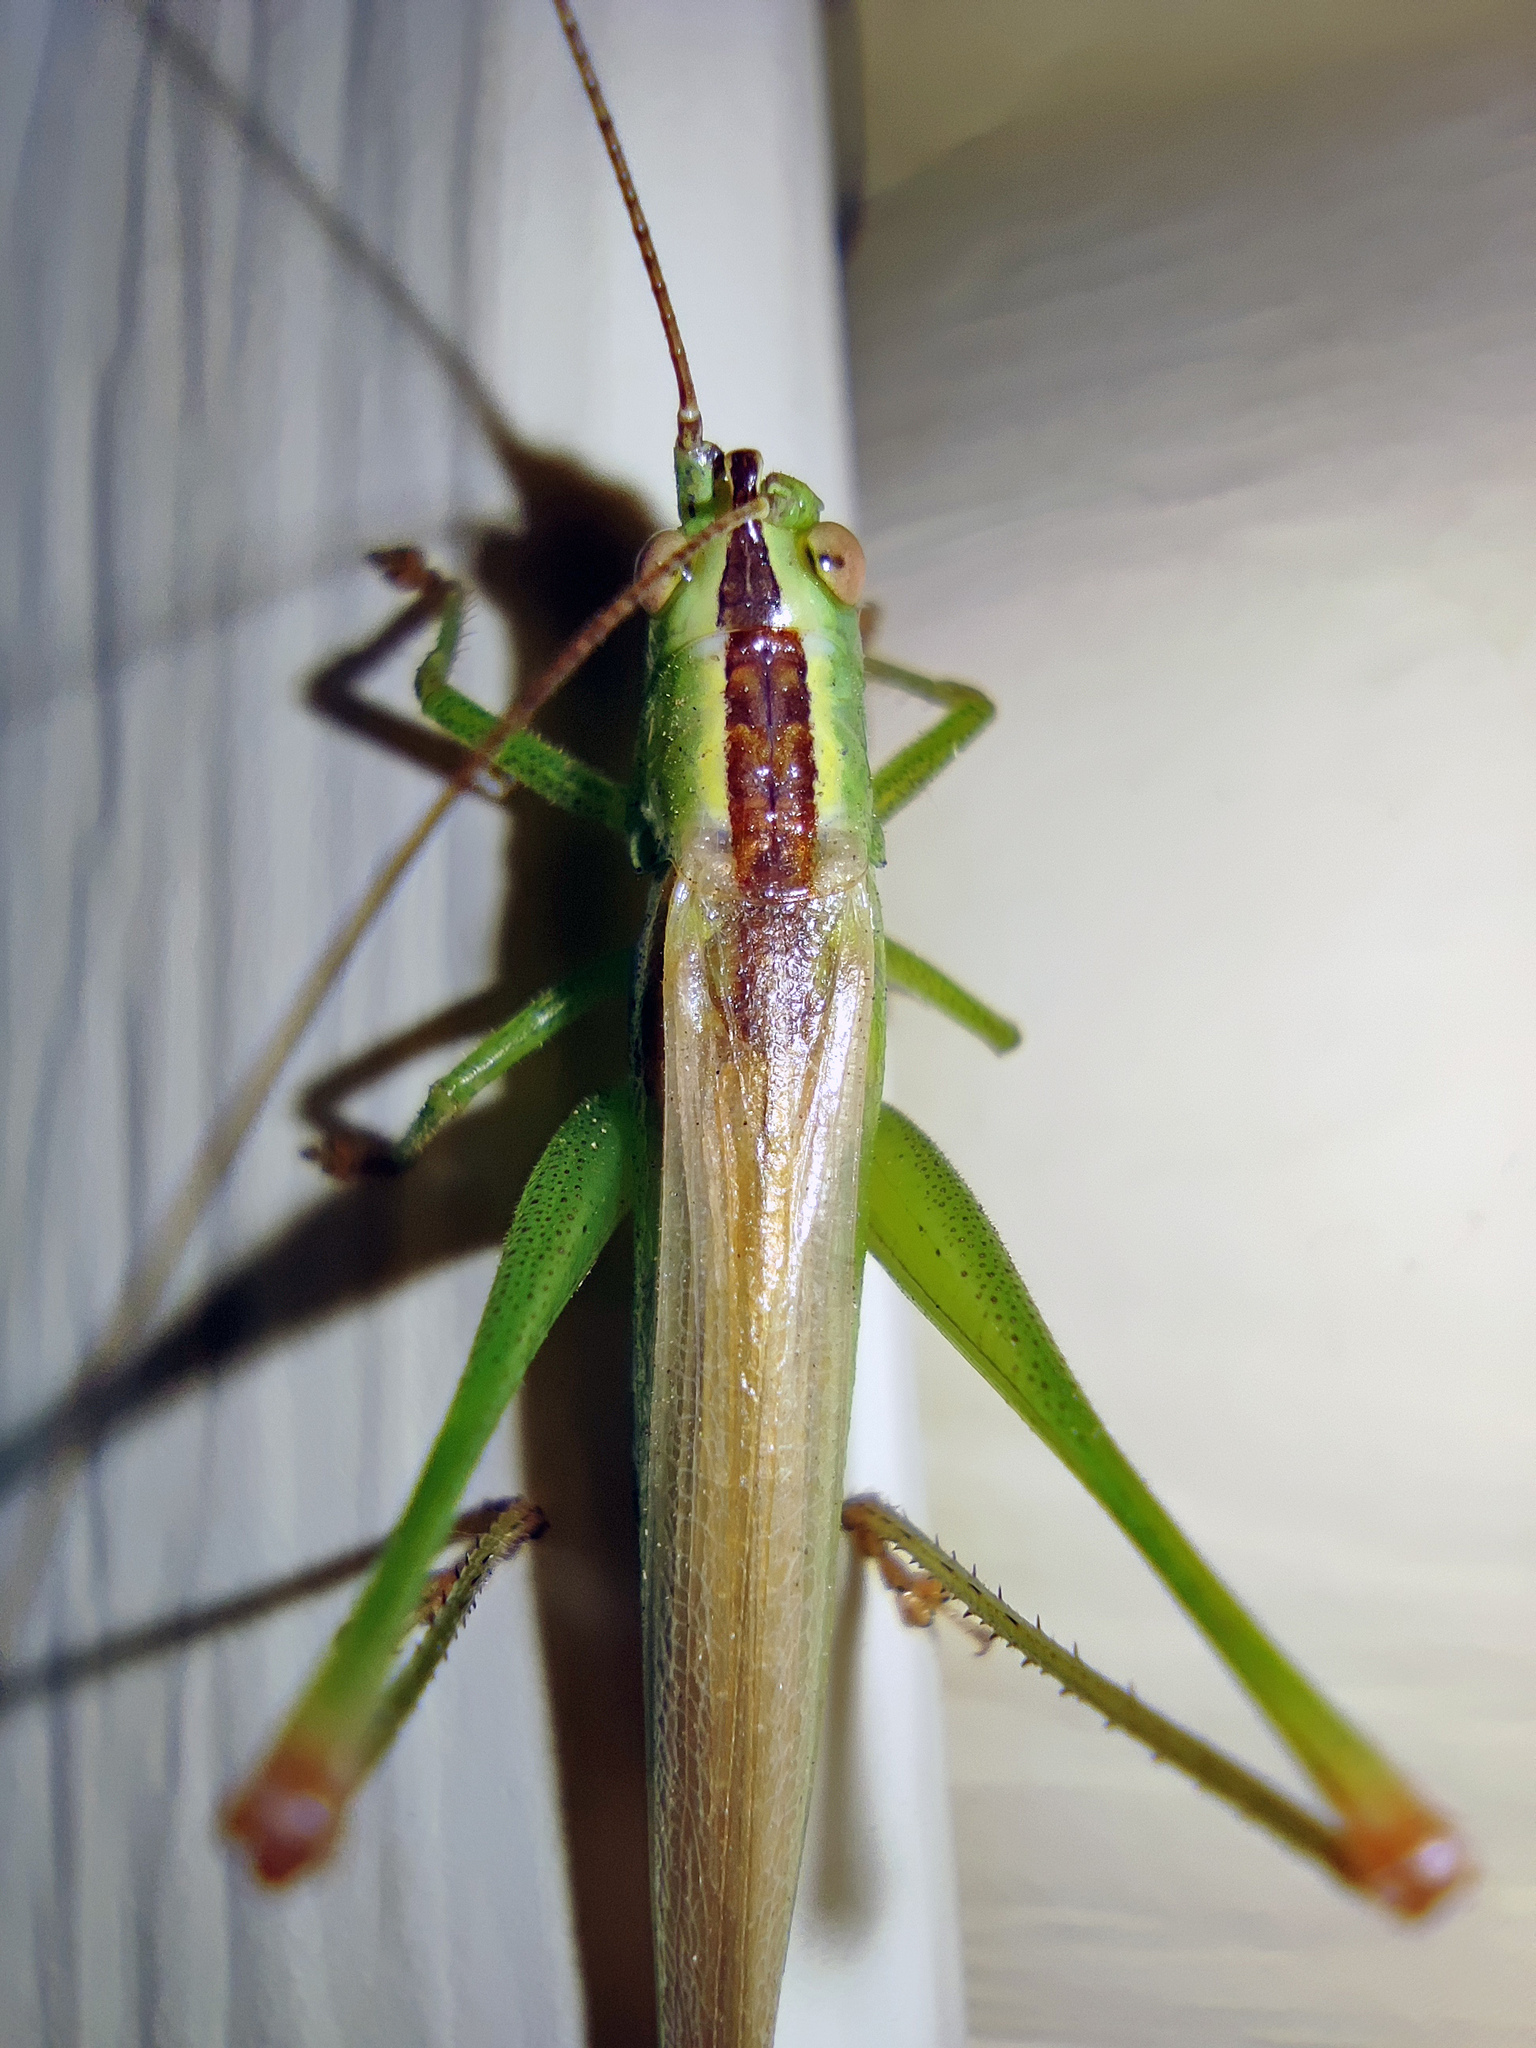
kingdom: Animalia
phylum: Arthropoda
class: Insecta
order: Orthoptera
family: Tettigoniidae
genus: Conocephalus
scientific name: Conocephalus fuscus
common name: Long-winged conehead
